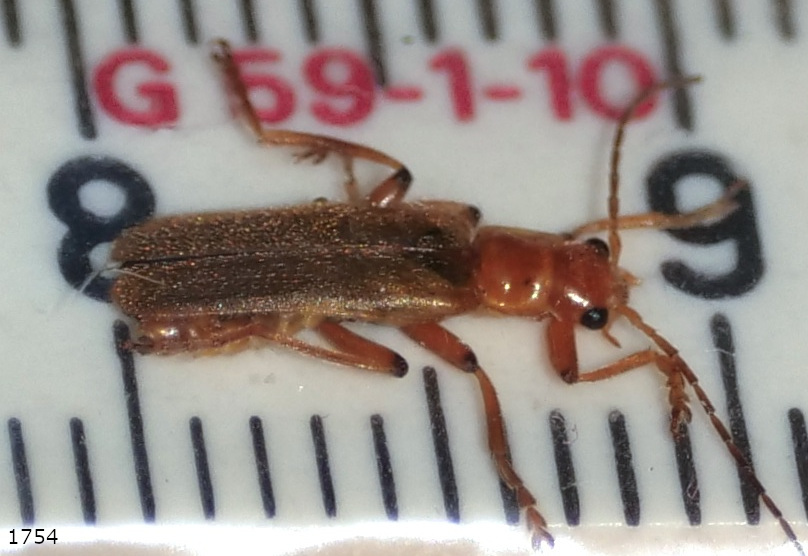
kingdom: Animalia
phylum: Arthropoda
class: Insecta
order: Coleoptera
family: Cantharidae
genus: Cantharis
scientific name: Cantharis cryptica
